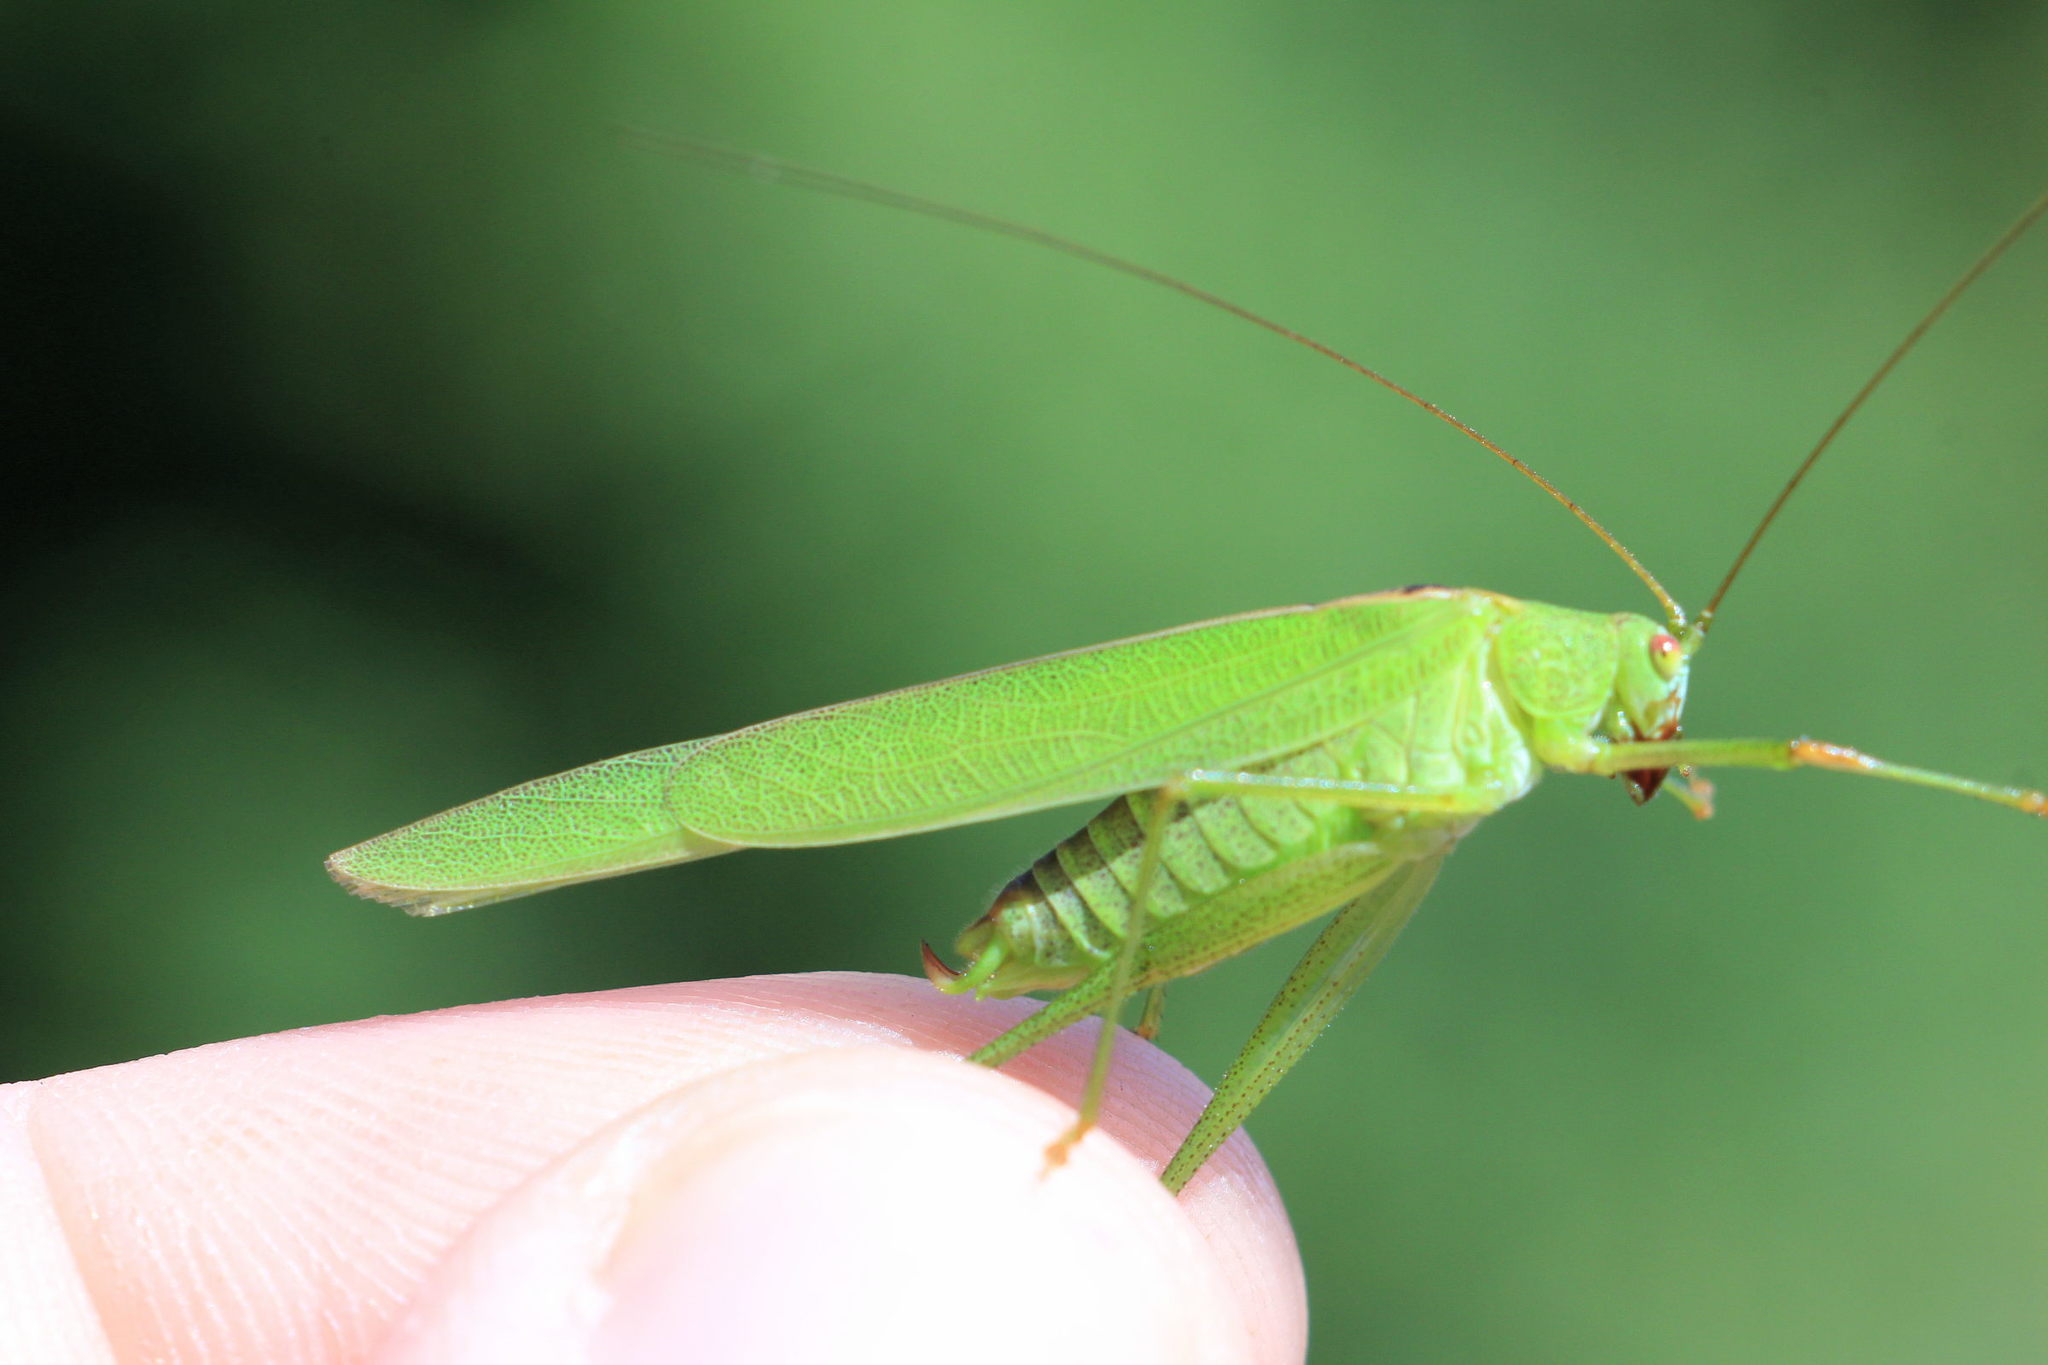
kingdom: Animalia
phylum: Arthropoda
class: Insecta
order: Orthoptera
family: Tettigoniidae
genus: Phaneroptera
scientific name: Phaneroptera falcata
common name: Sickle-bearing bush-cricket
